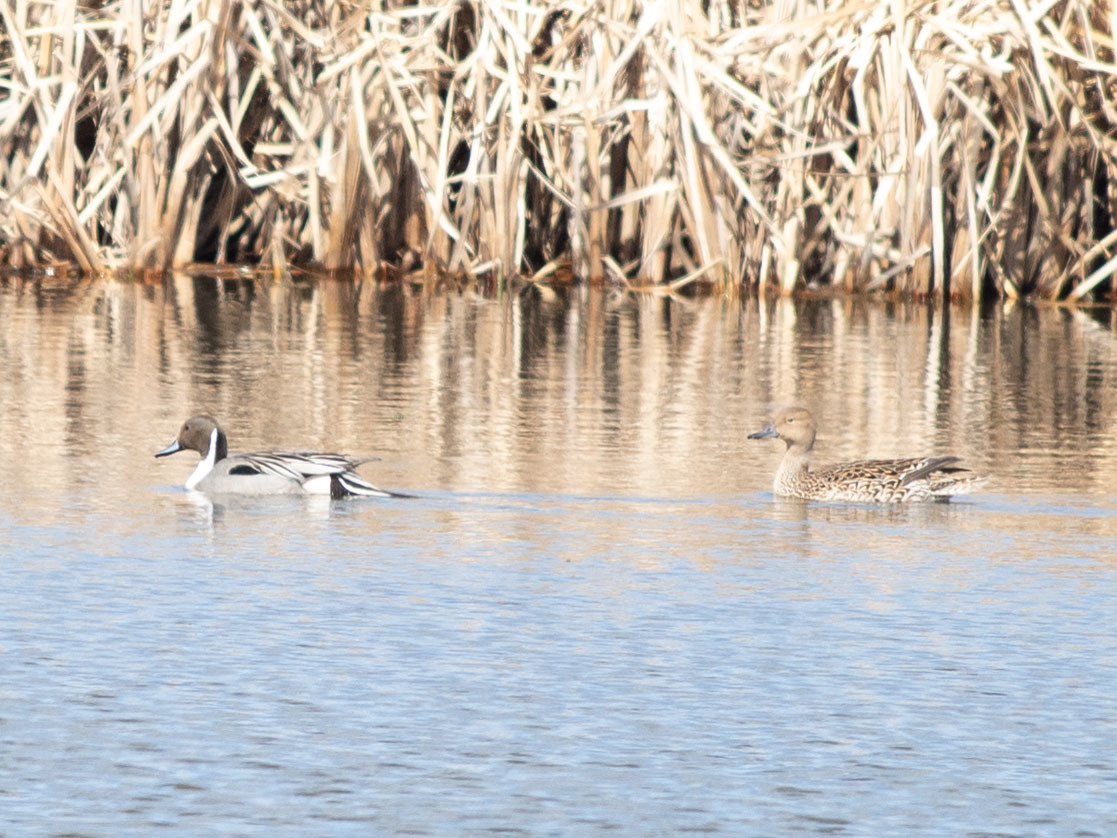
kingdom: Animalia
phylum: Chordata
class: Aves
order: Anseriformes
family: Anatidae
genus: Anas
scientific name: Anas acuta
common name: Northern pintail
